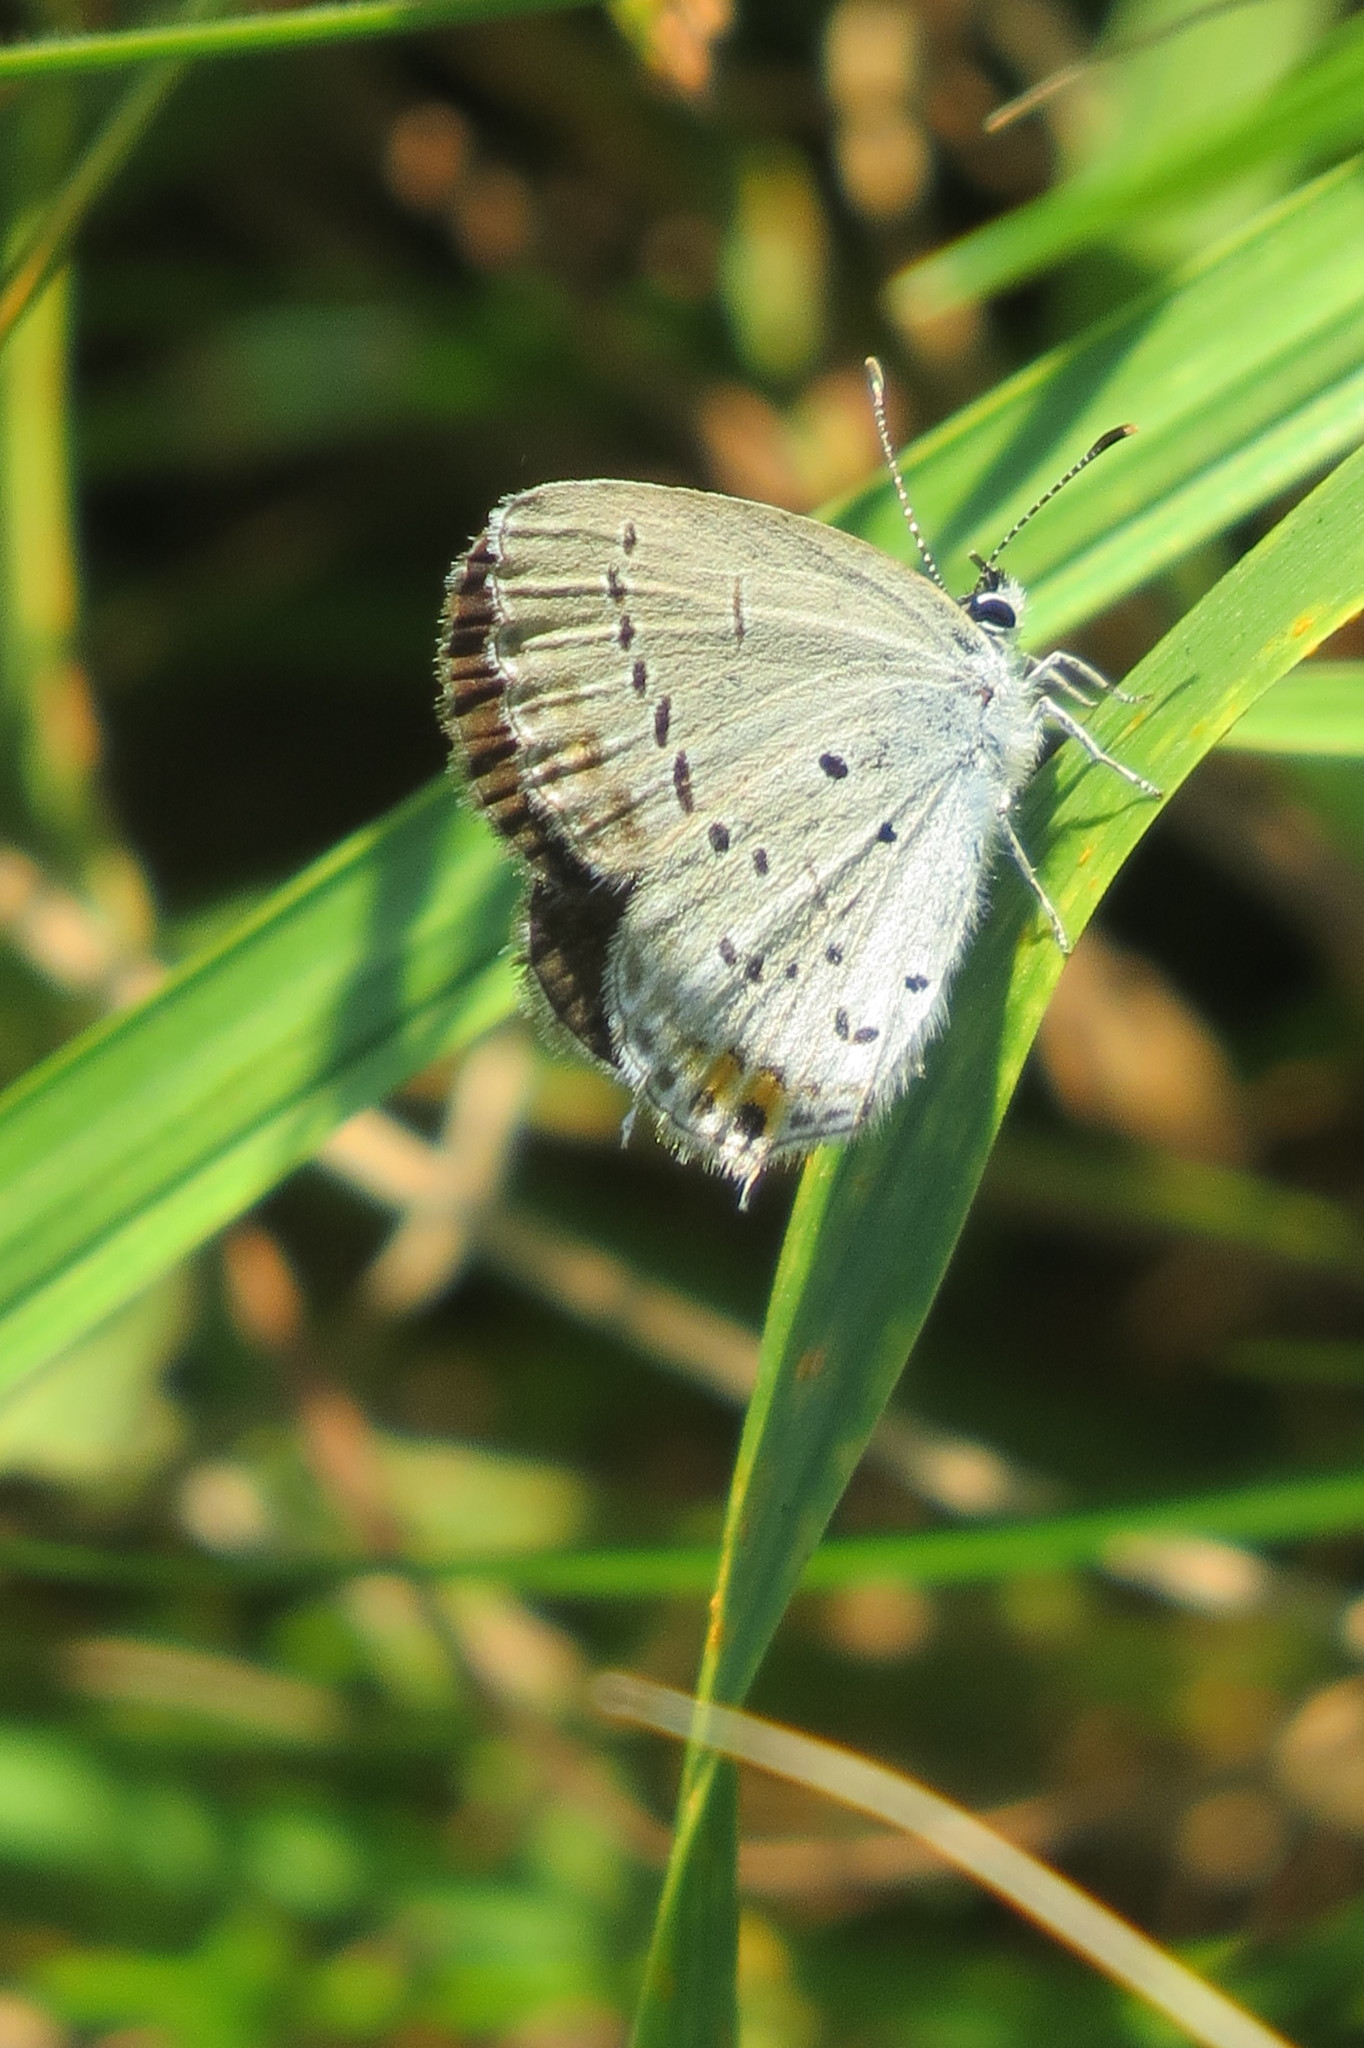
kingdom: Animalia
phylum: Arthropoda
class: Insecta
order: Lepidoptera
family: Lycaenidae
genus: Elkalyce
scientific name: Elkalyce argiades
